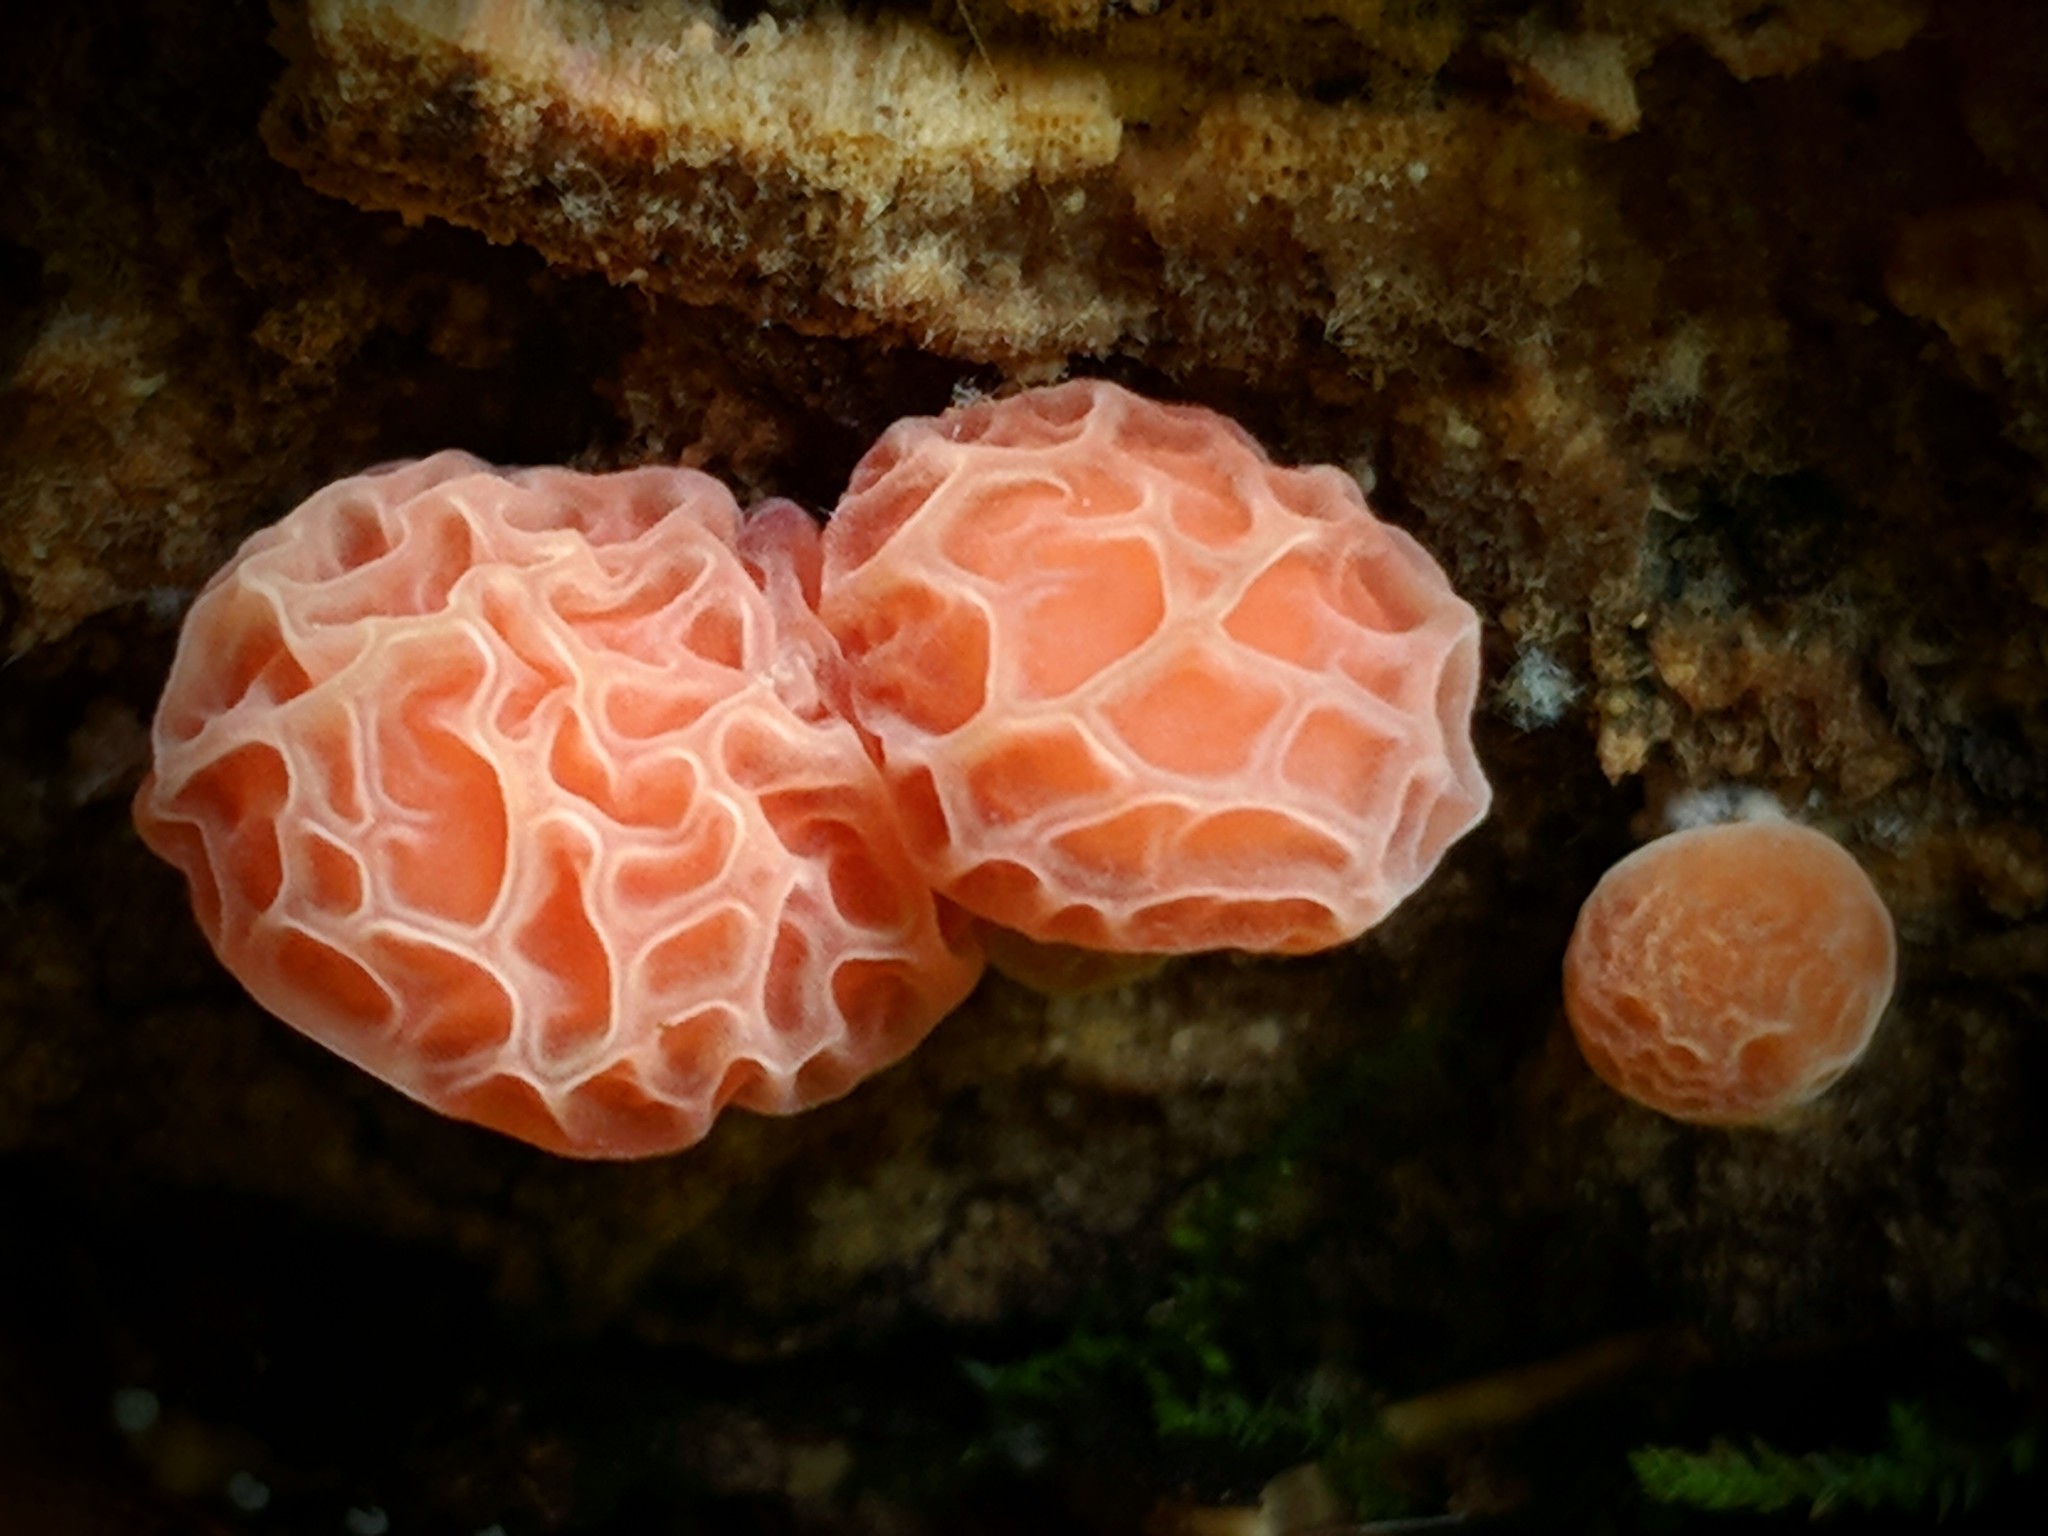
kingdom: Fungi
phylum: Basidiomycota
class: Agaricomycetes
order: Agaricales
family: Physalacriaceae
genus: Rhodotus
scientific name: Rhodotus palmatus
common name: Wrinkled peach
